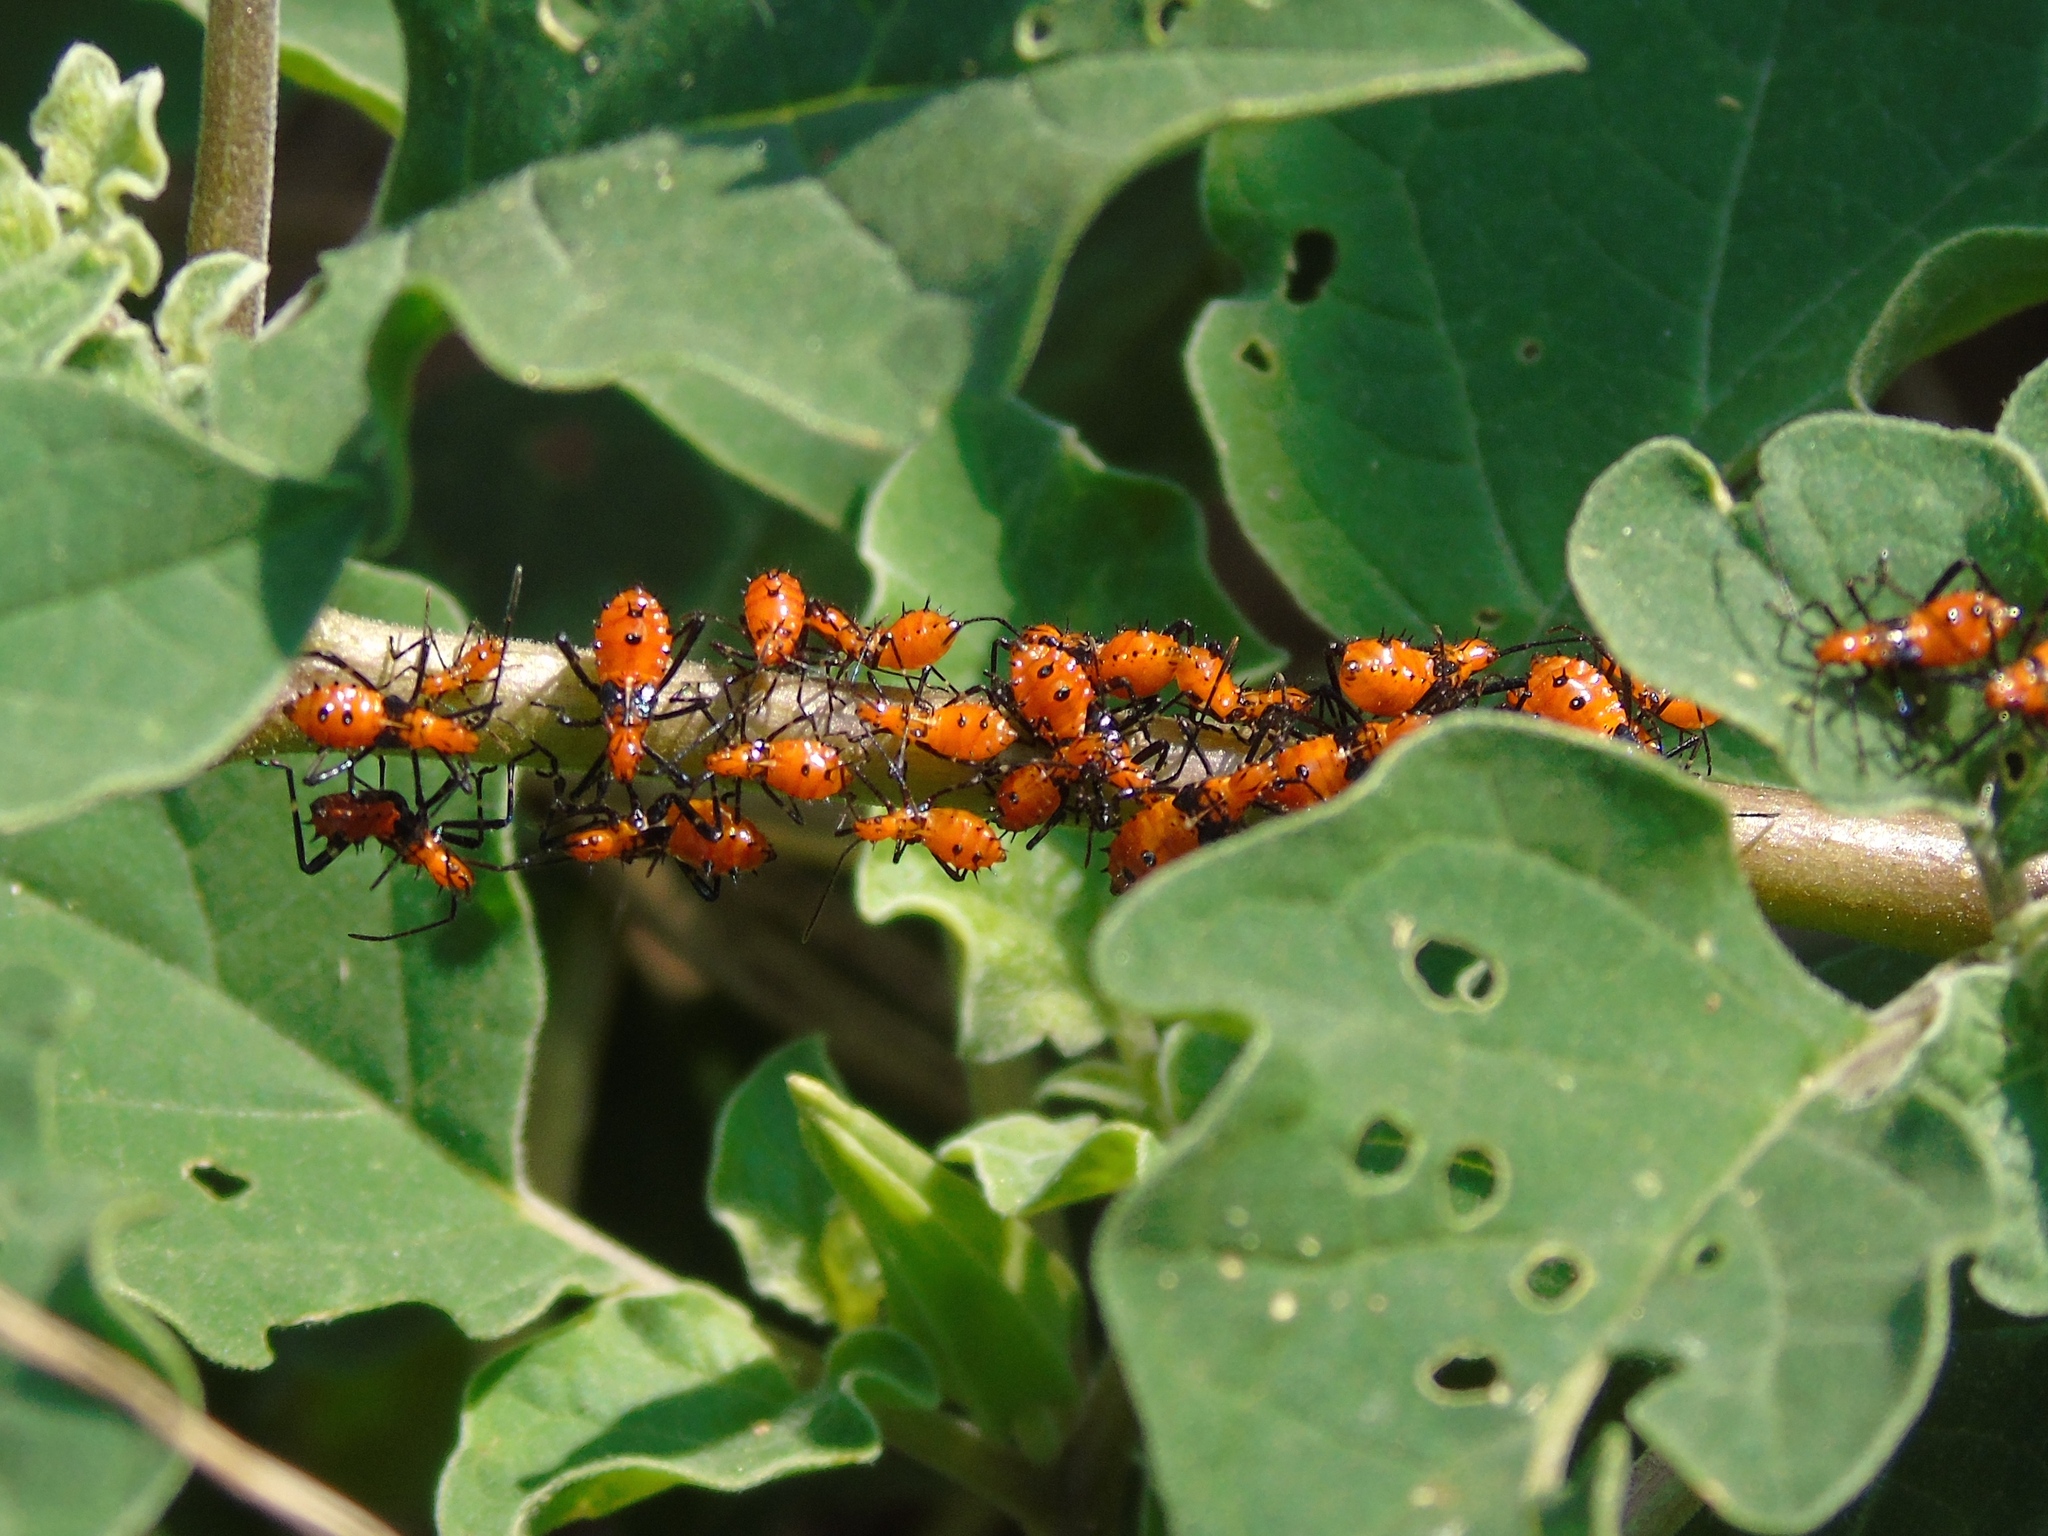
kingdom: Animalia
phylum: Arthropoda
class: Insecta
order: Hemiptera
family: Coreidae
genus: Leptoglossus
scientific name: Leptoglossus
